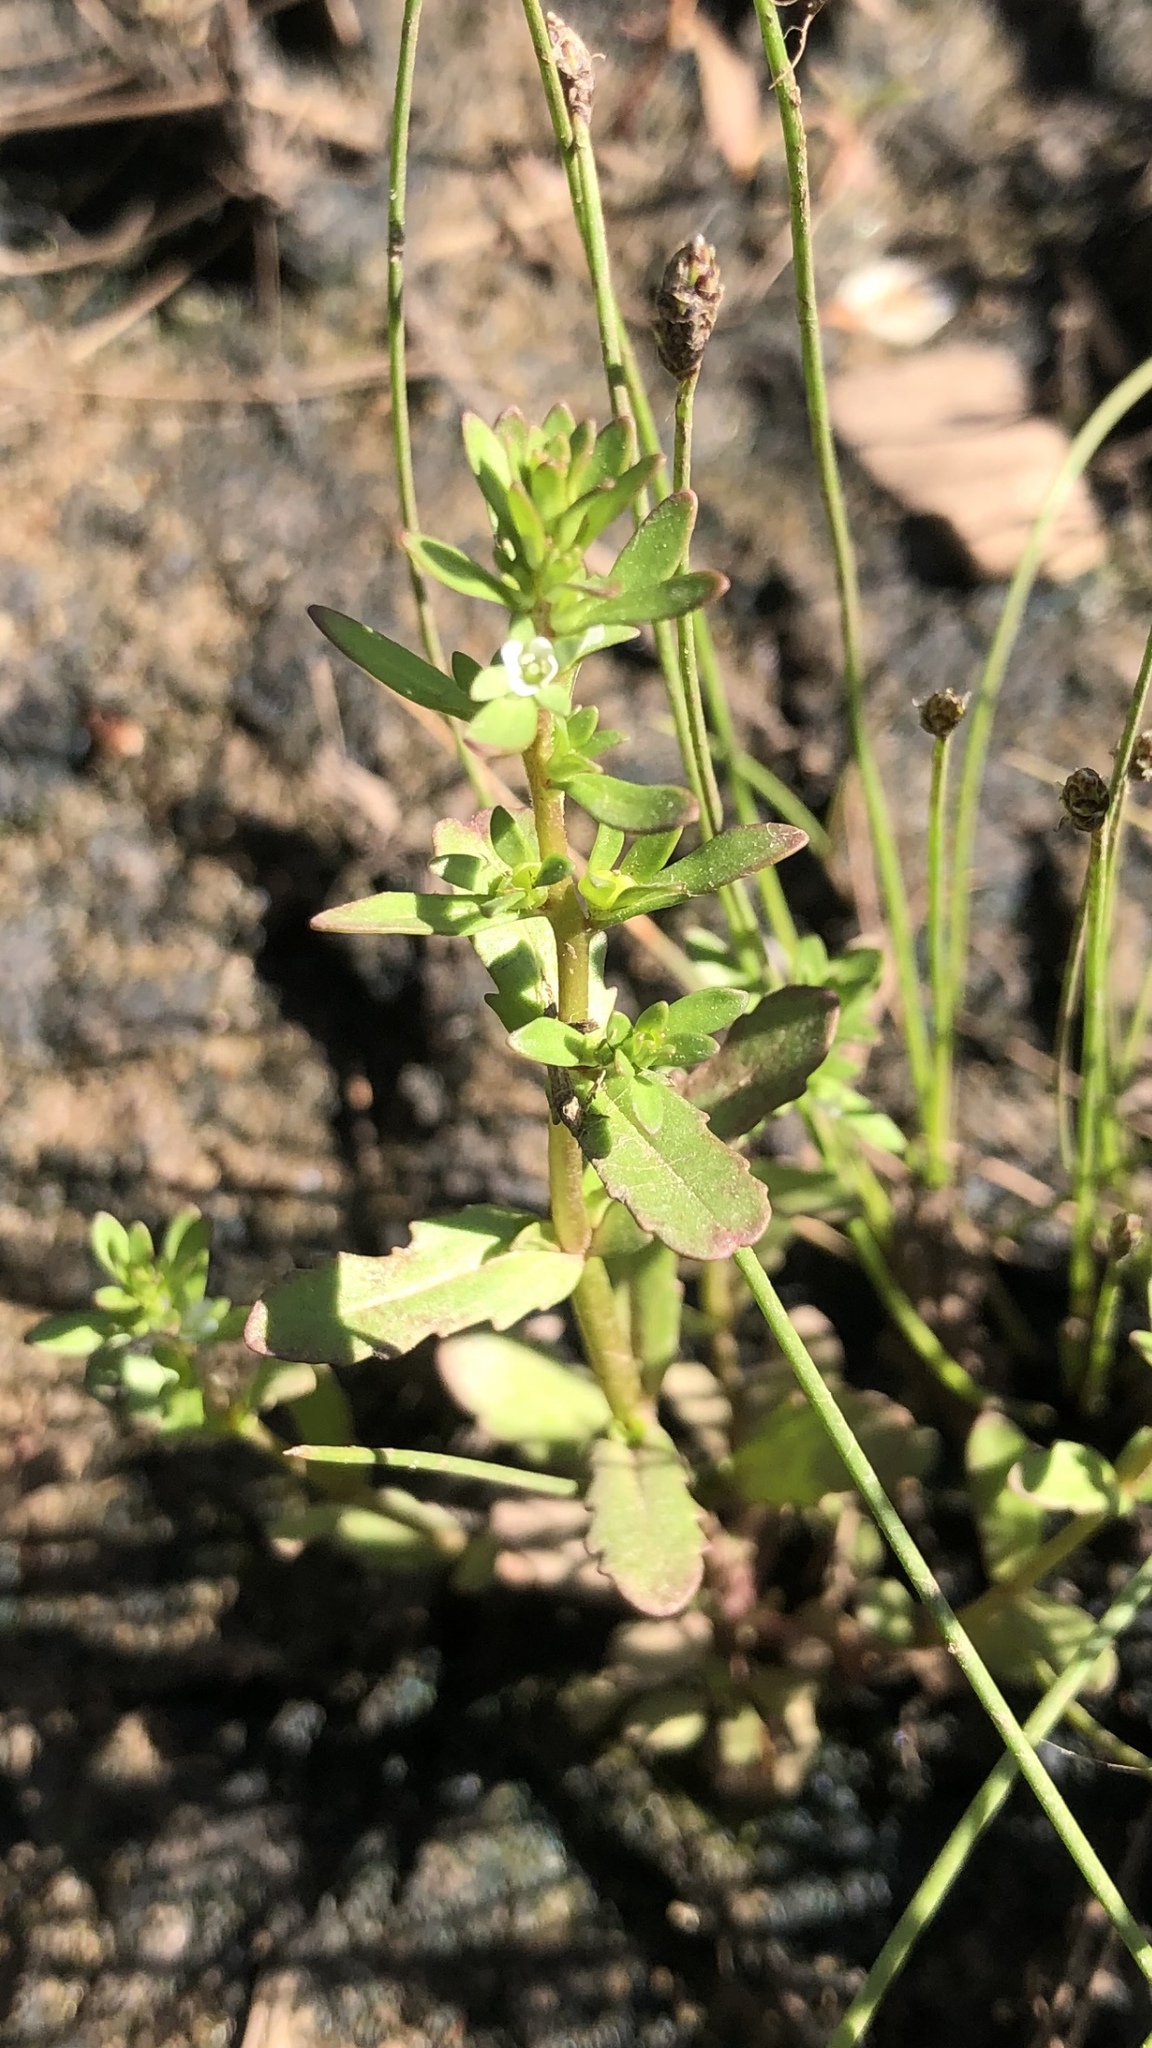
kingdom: Plantae
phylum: Tracheophyta
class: Magnoliopsida
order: Lamiales
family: Plantaginaceae
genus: Veronica
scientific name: Veronica peregrina
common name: Neckweed
